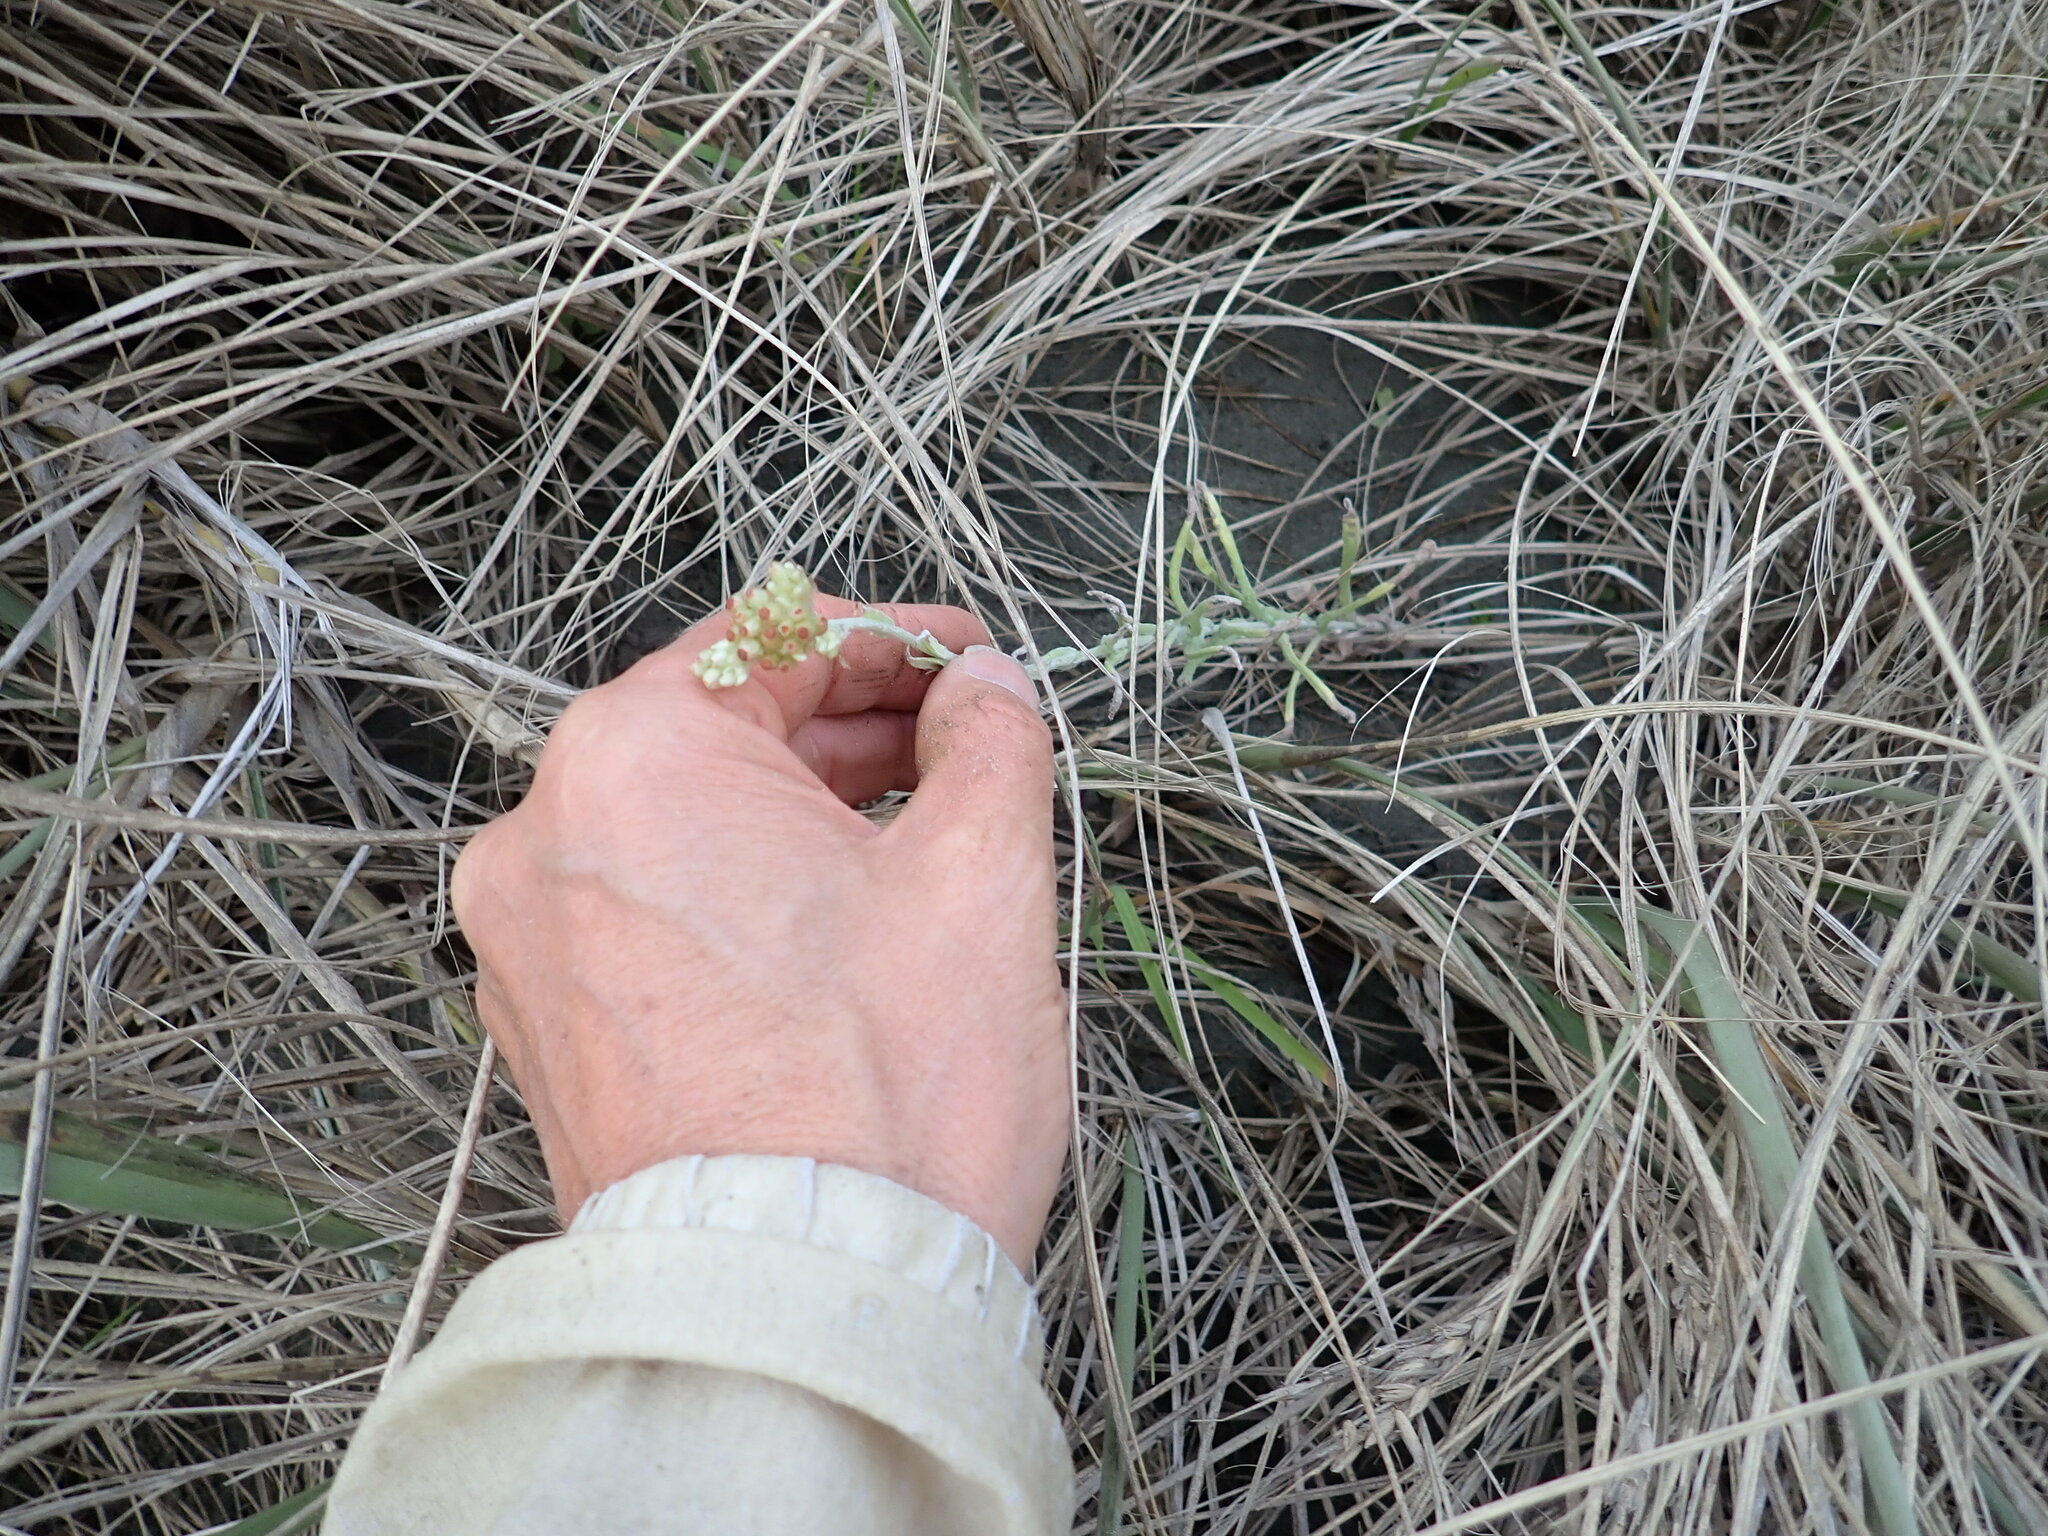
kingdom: Plantae
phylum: Tracheophyta
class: Magnoliopsida
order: Asterales
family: Asteraceae
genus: Helichrysum
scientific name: Helichrysum luteoalbum
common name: Daisy
